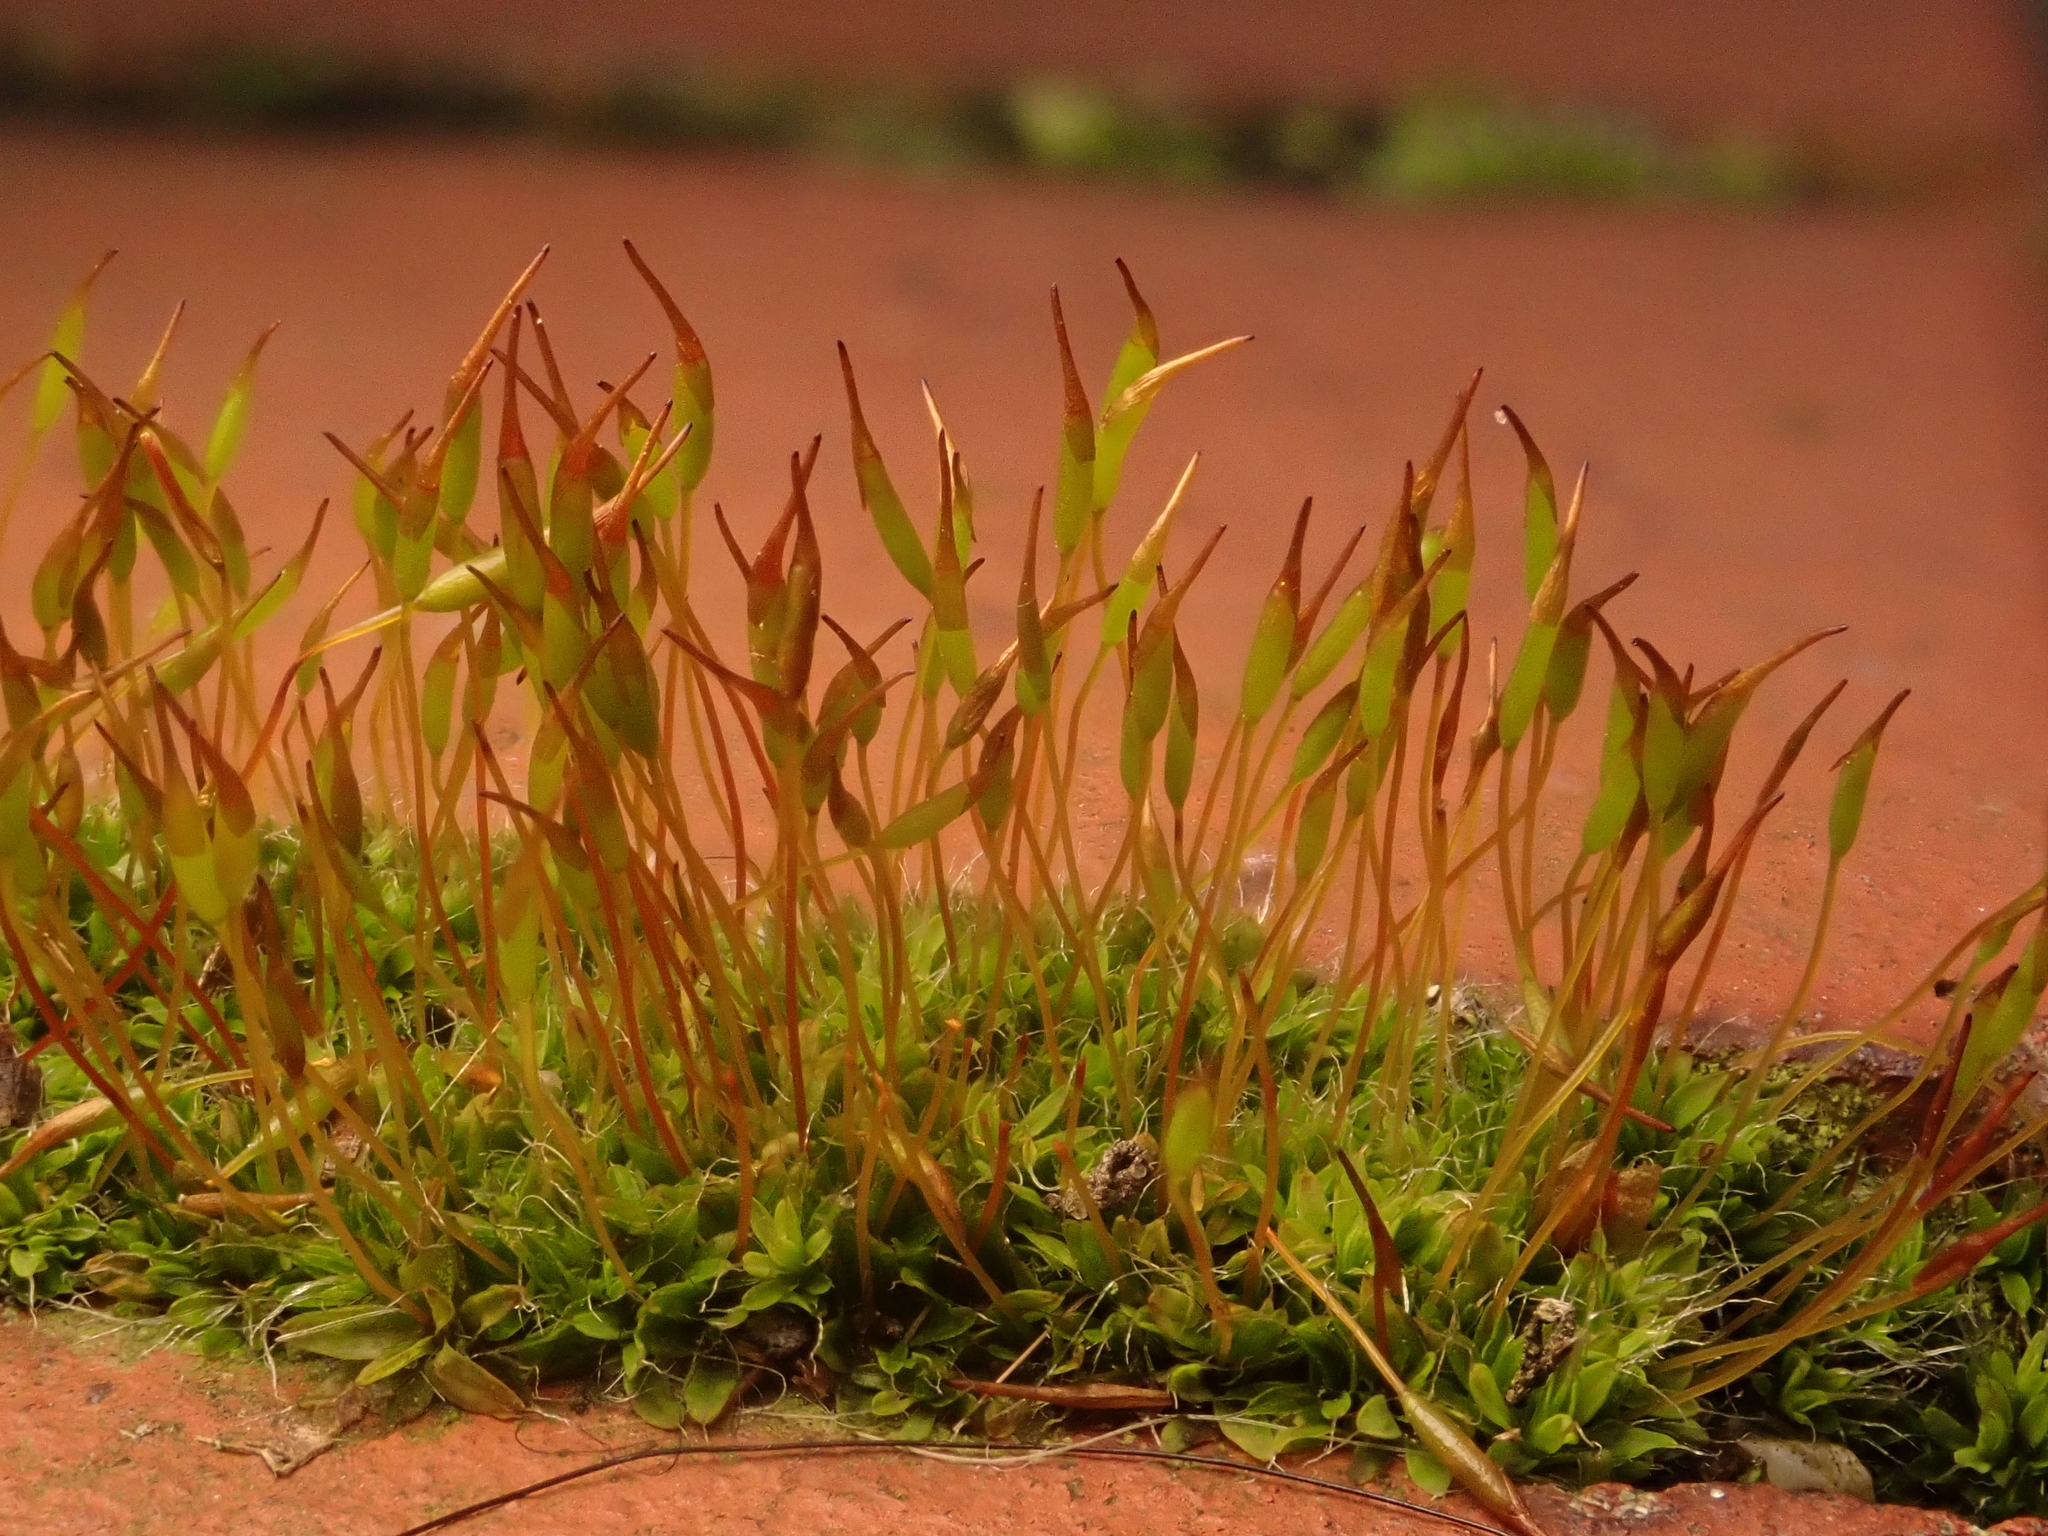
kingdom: Plantae
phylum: Bryophyta
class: Bryopsida
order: Pottiales
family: Pottiaceae
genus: Tortula
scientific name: Tortula muralis
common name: Wall screw-moss
